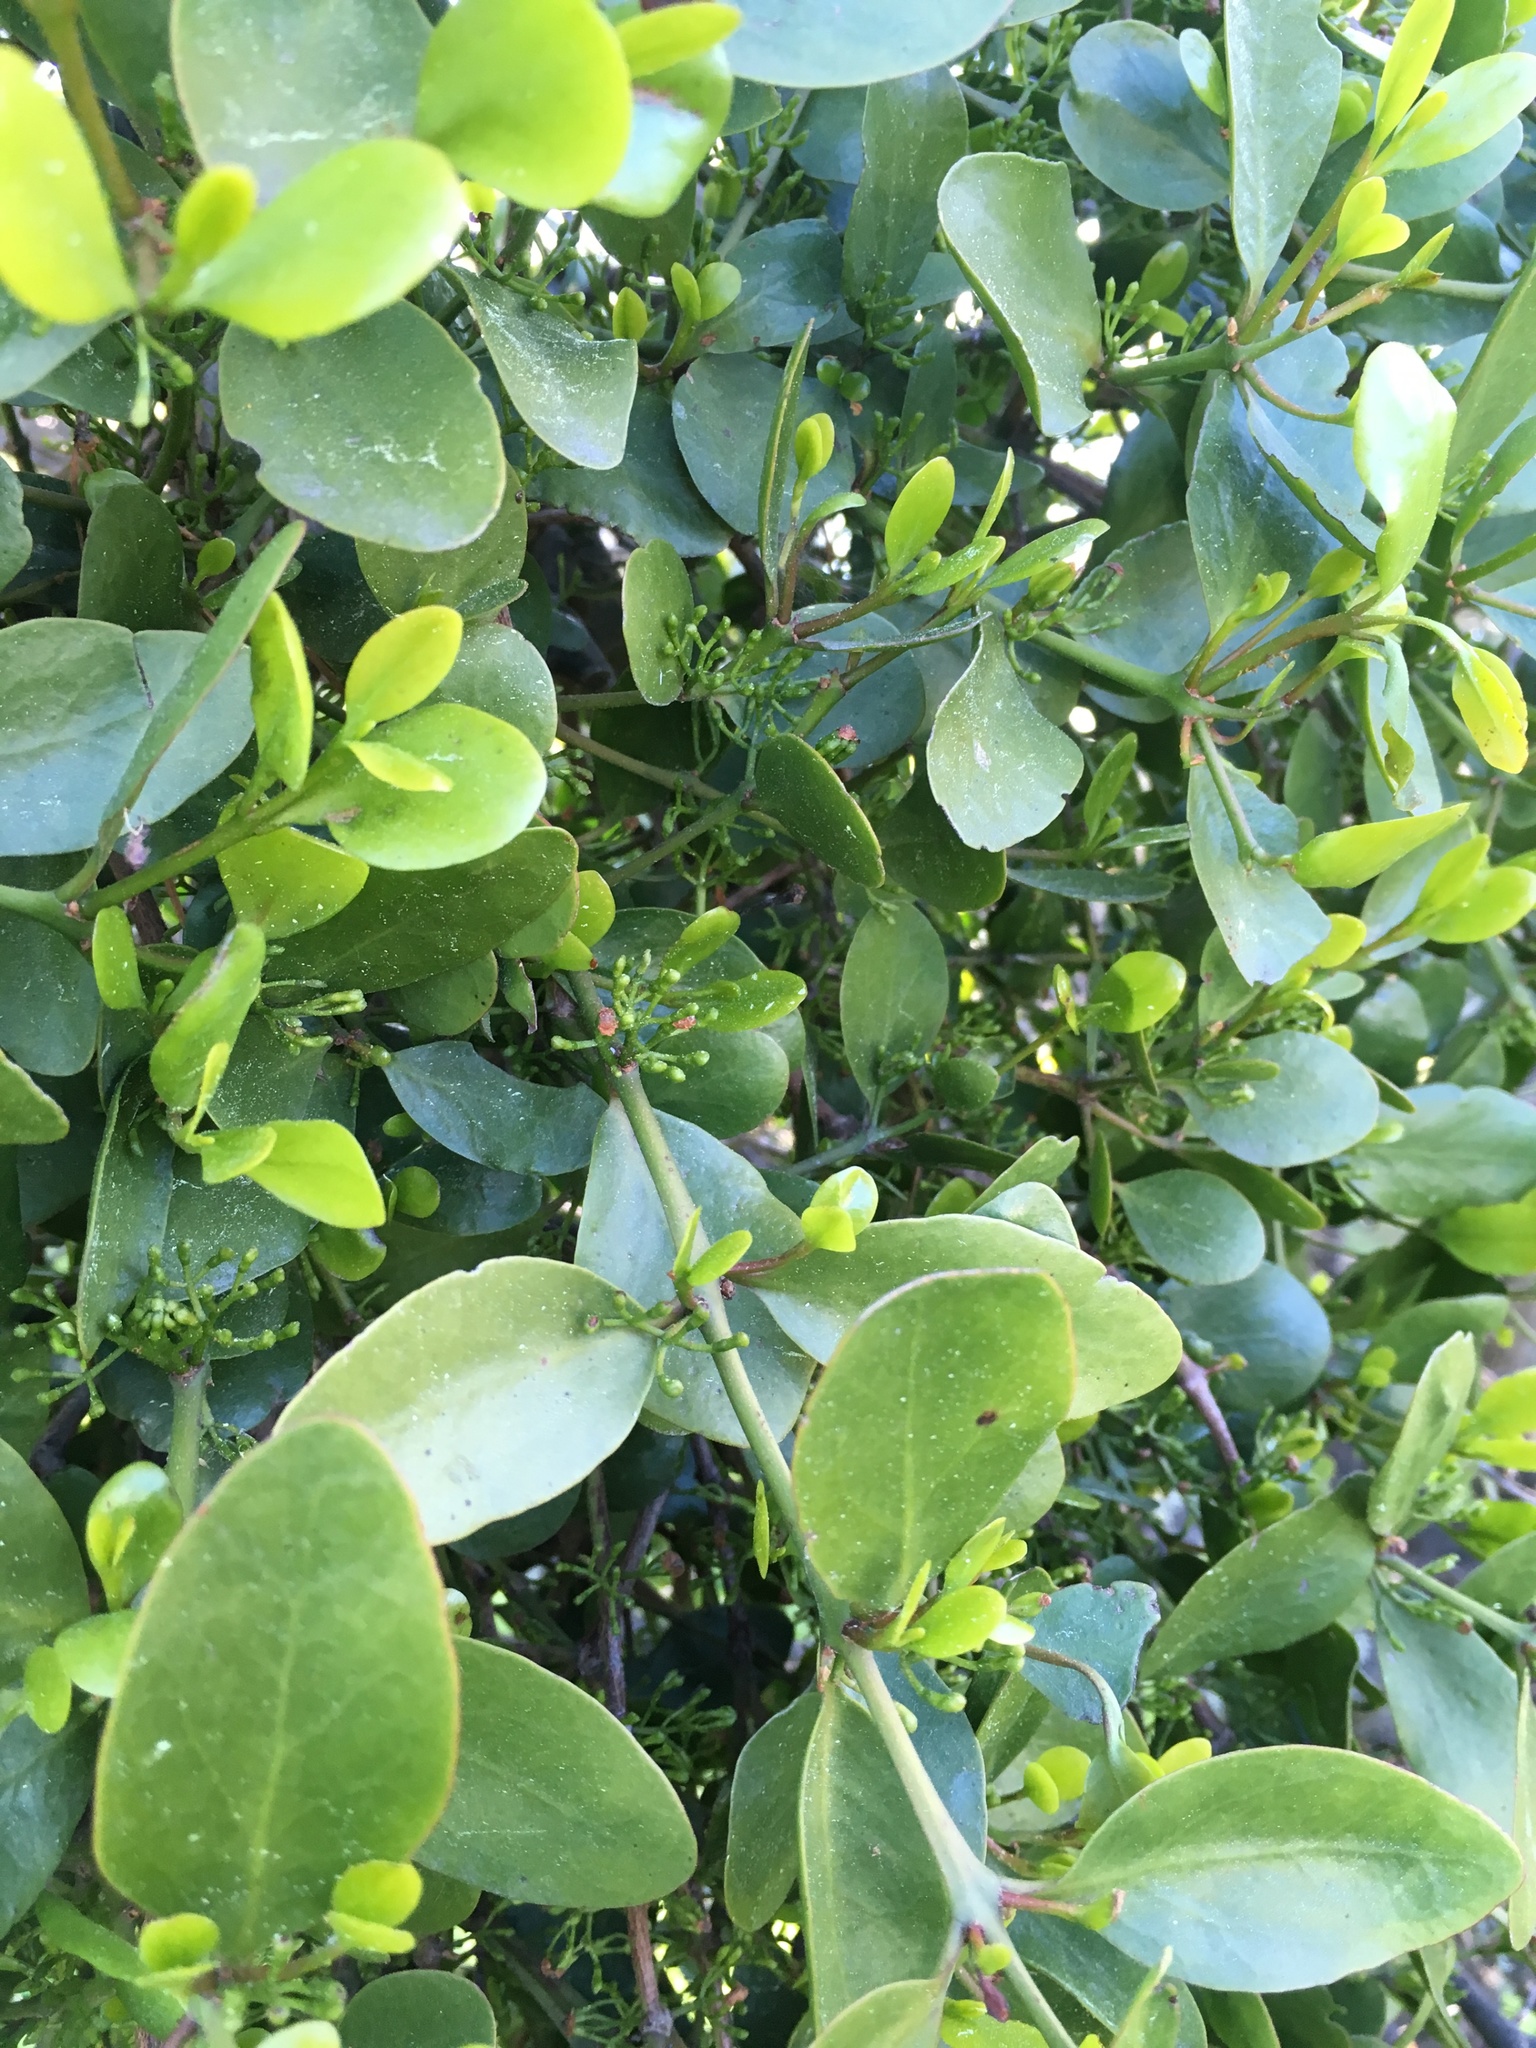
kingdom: Plantae
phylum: Tracheophyta
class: Magnoliopsida
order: Santalales
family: Loranthaceae
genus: Ileostylus
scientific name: Ileostylus micranthus
